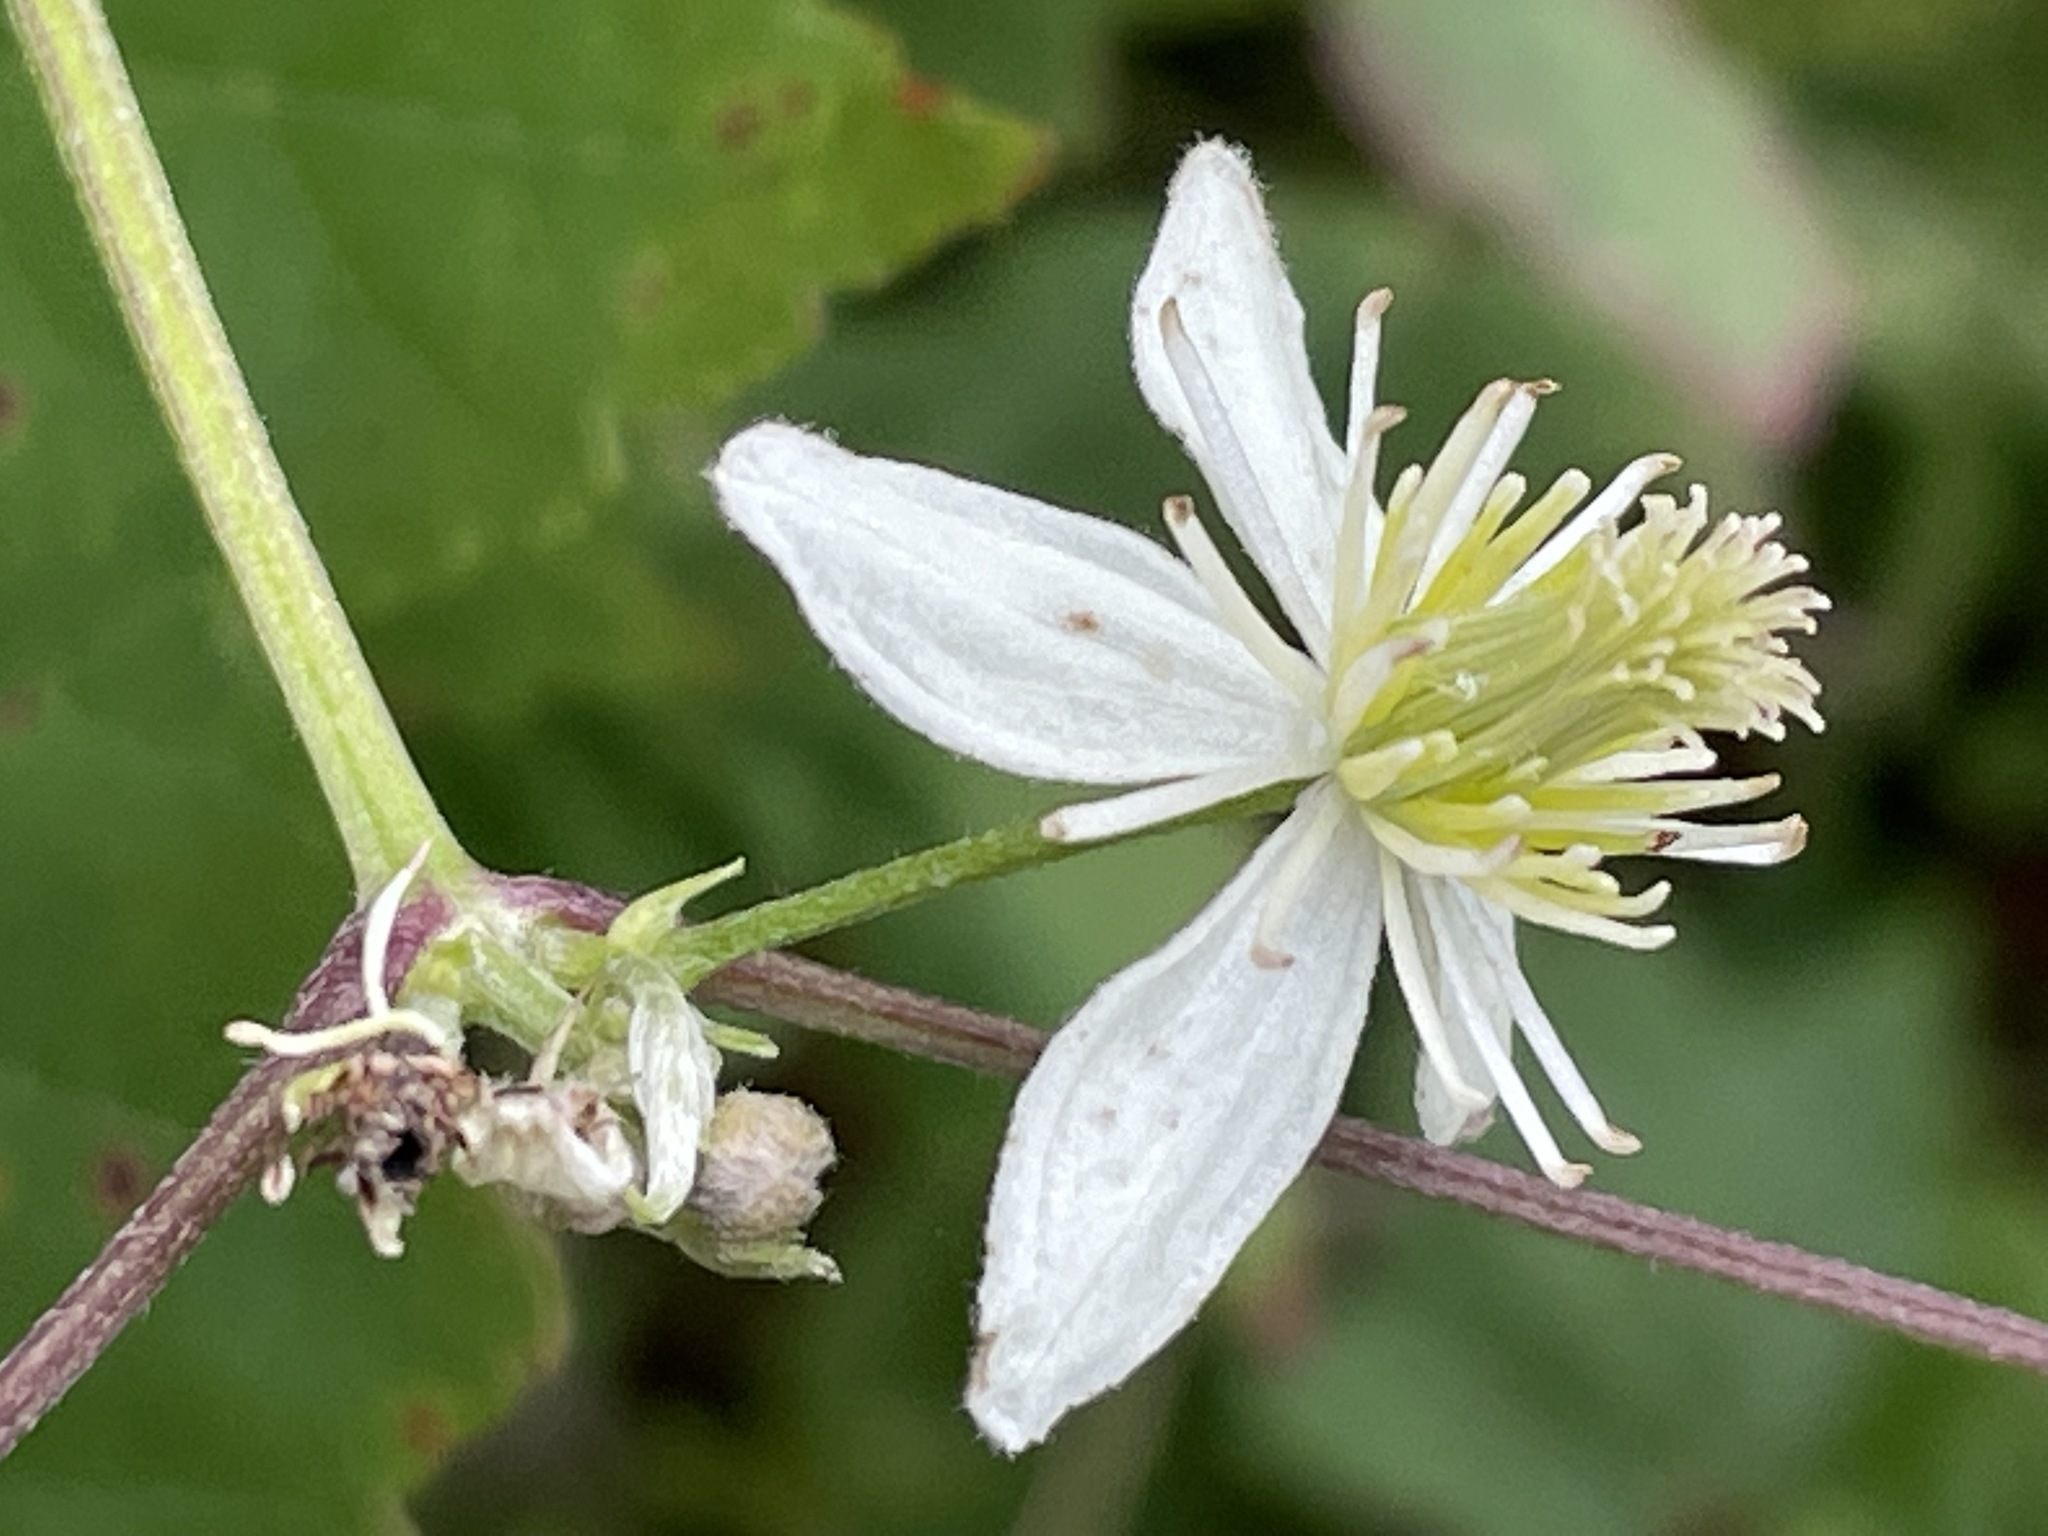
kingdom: Plantae
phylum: Tracheophyta
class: Magnoliopsida
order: Ranunculales
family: Ranunculaceae
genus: Clematis
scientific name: Clematis virginiana
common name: Virgin's-bower
